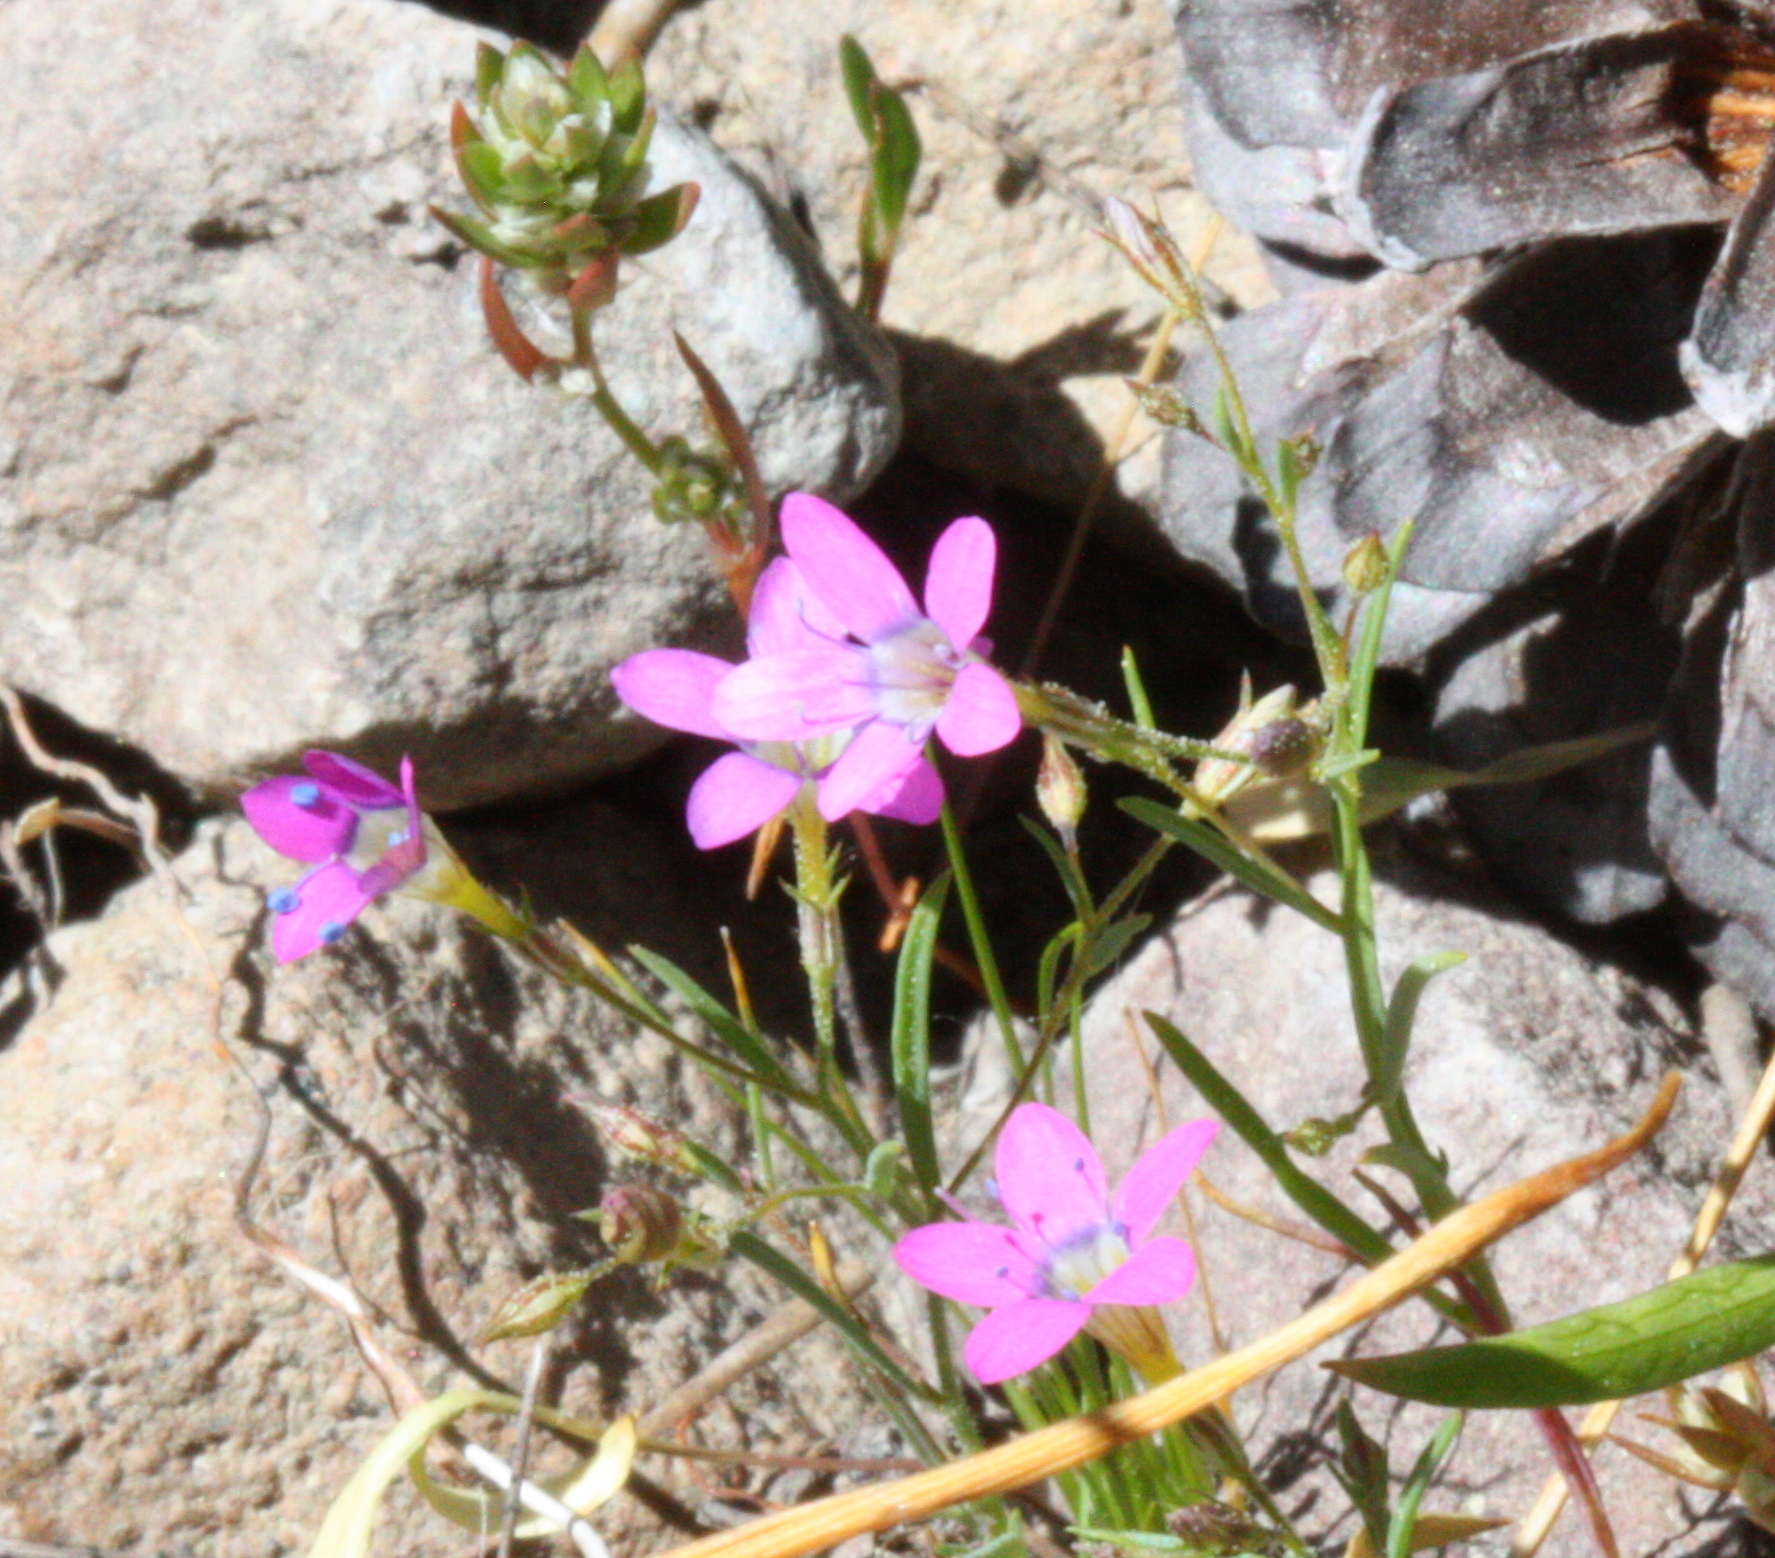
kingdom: Plantae
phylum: Tracheophyta
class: Magnoliopsida
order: Ericales
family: Polemoniaceae
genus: Navarretia
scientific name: Navarretia leptalea
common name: Bridges' pincushionplant
